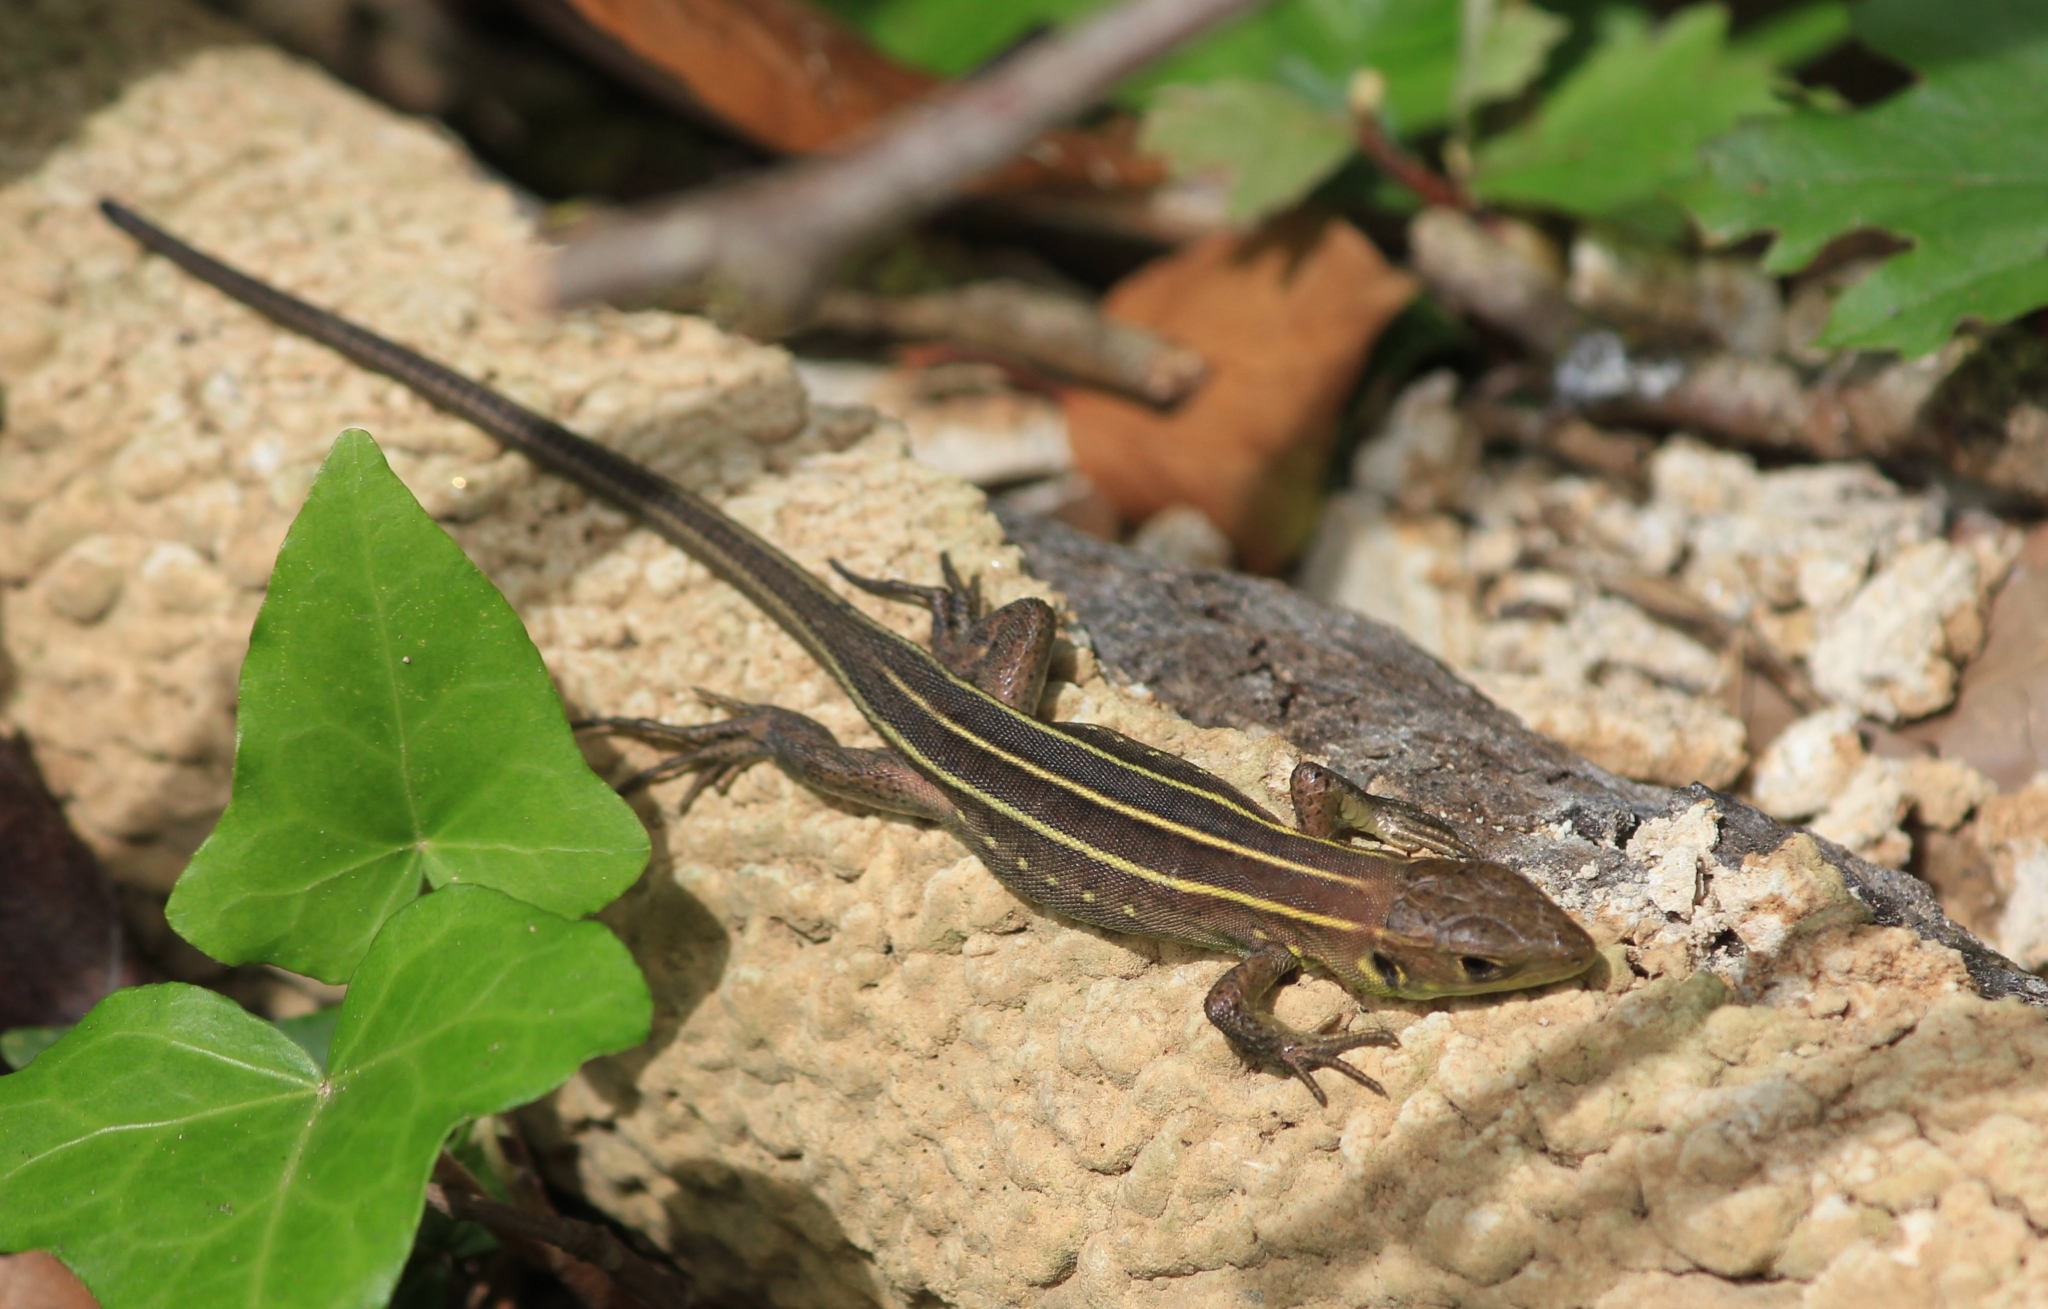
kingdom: Animalia
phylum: Chordata
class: Squamata
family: Lacertidae
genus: Lacerta
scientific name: Lacerta trilineata
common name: Balkan green lizard
